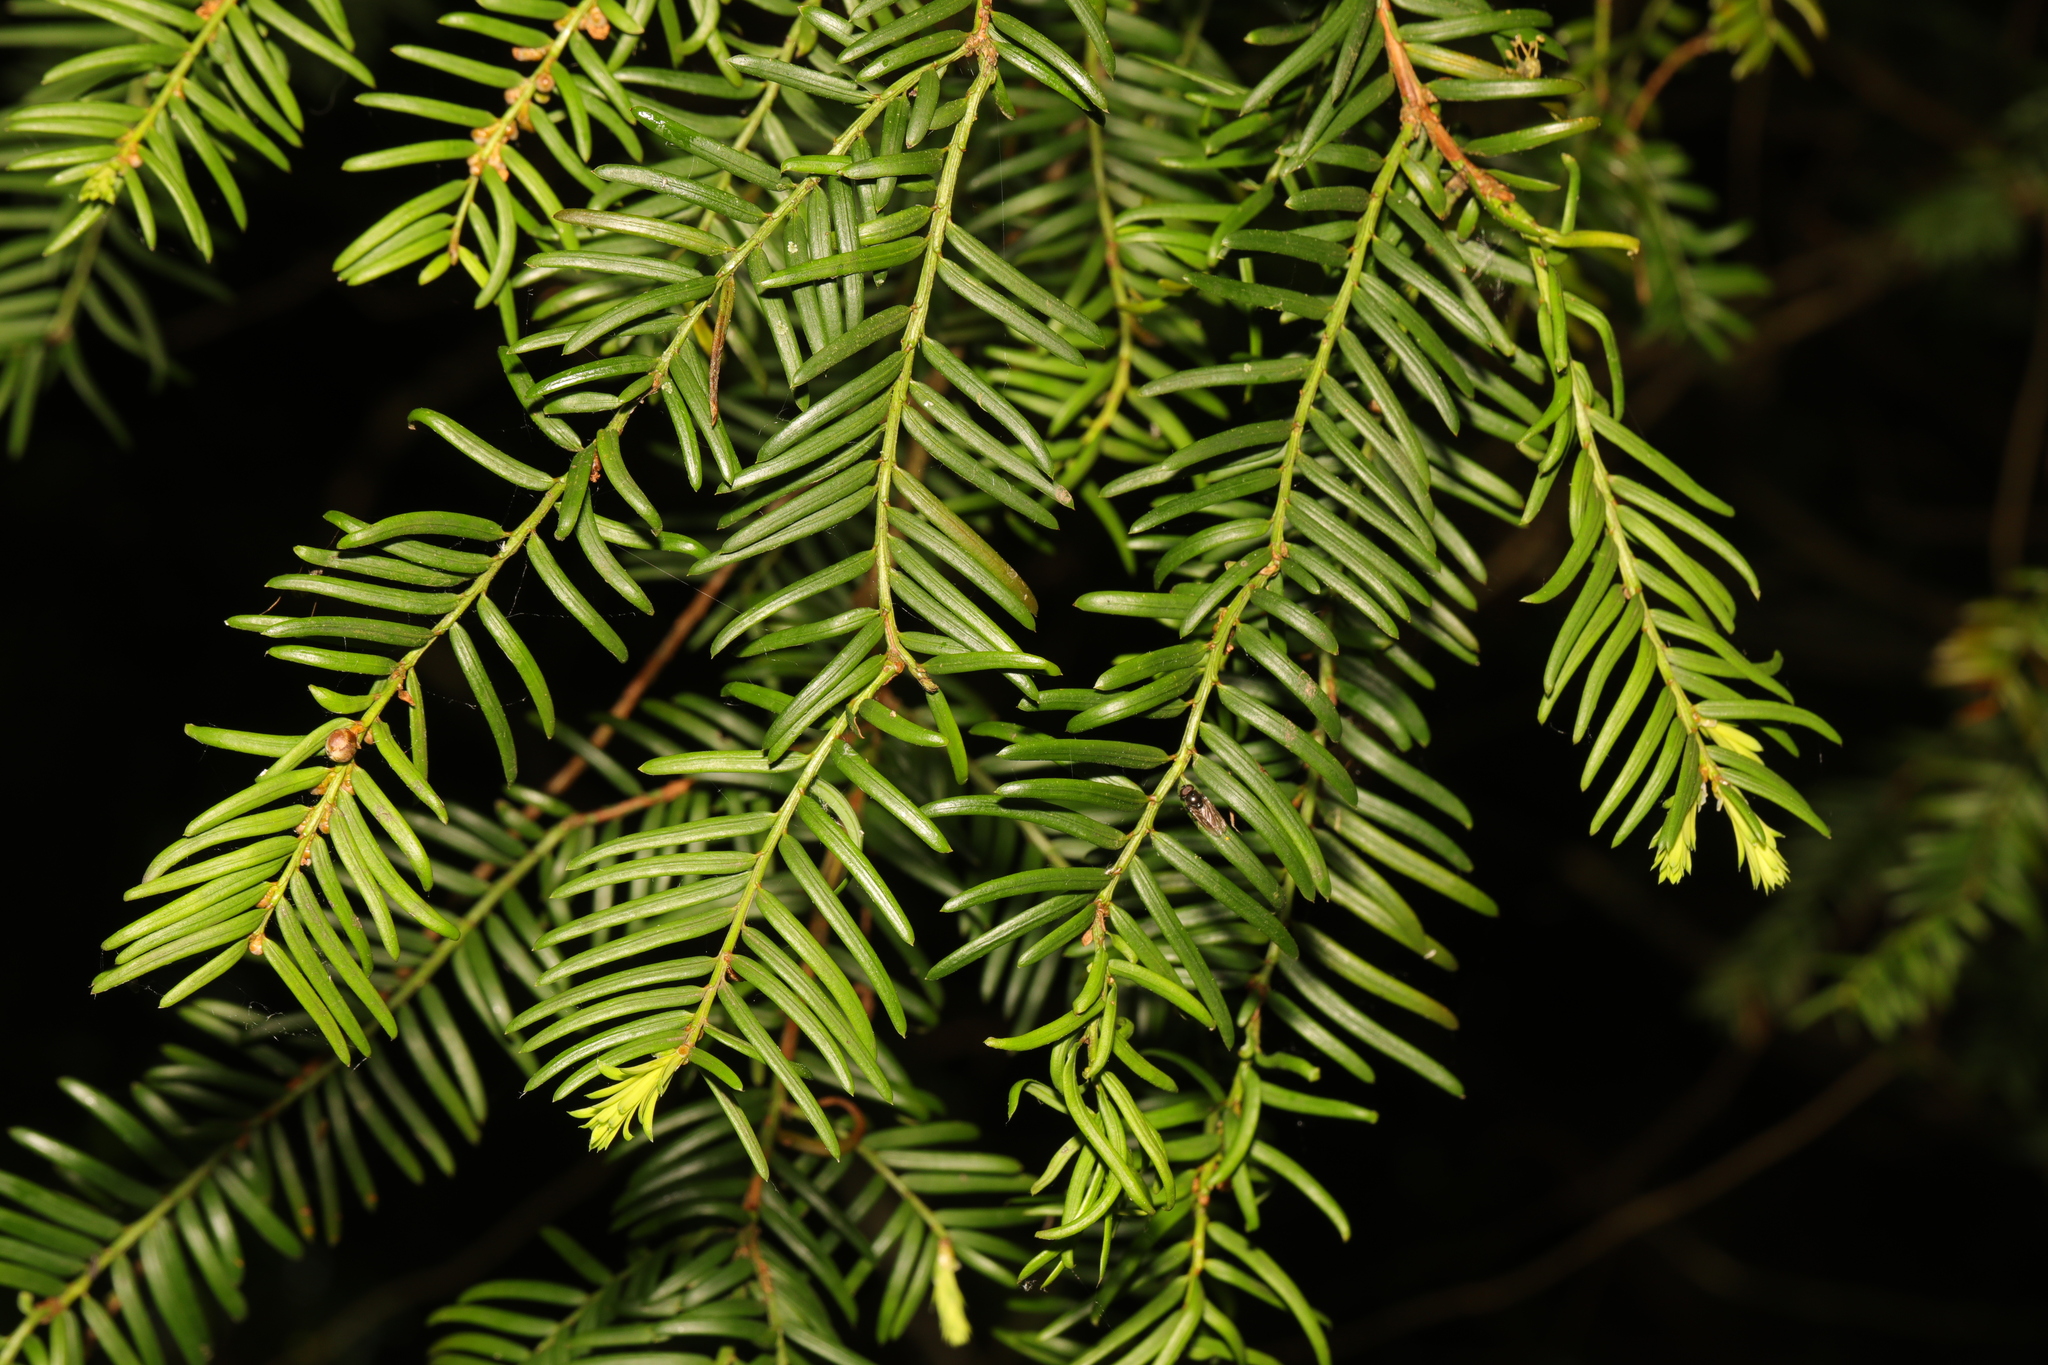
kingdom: Plantae
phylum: Tracheophyta
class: Pinopsida
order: Pinales
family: Taxaceae
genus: Taxus
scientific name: Taxus baccata
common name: Yew
